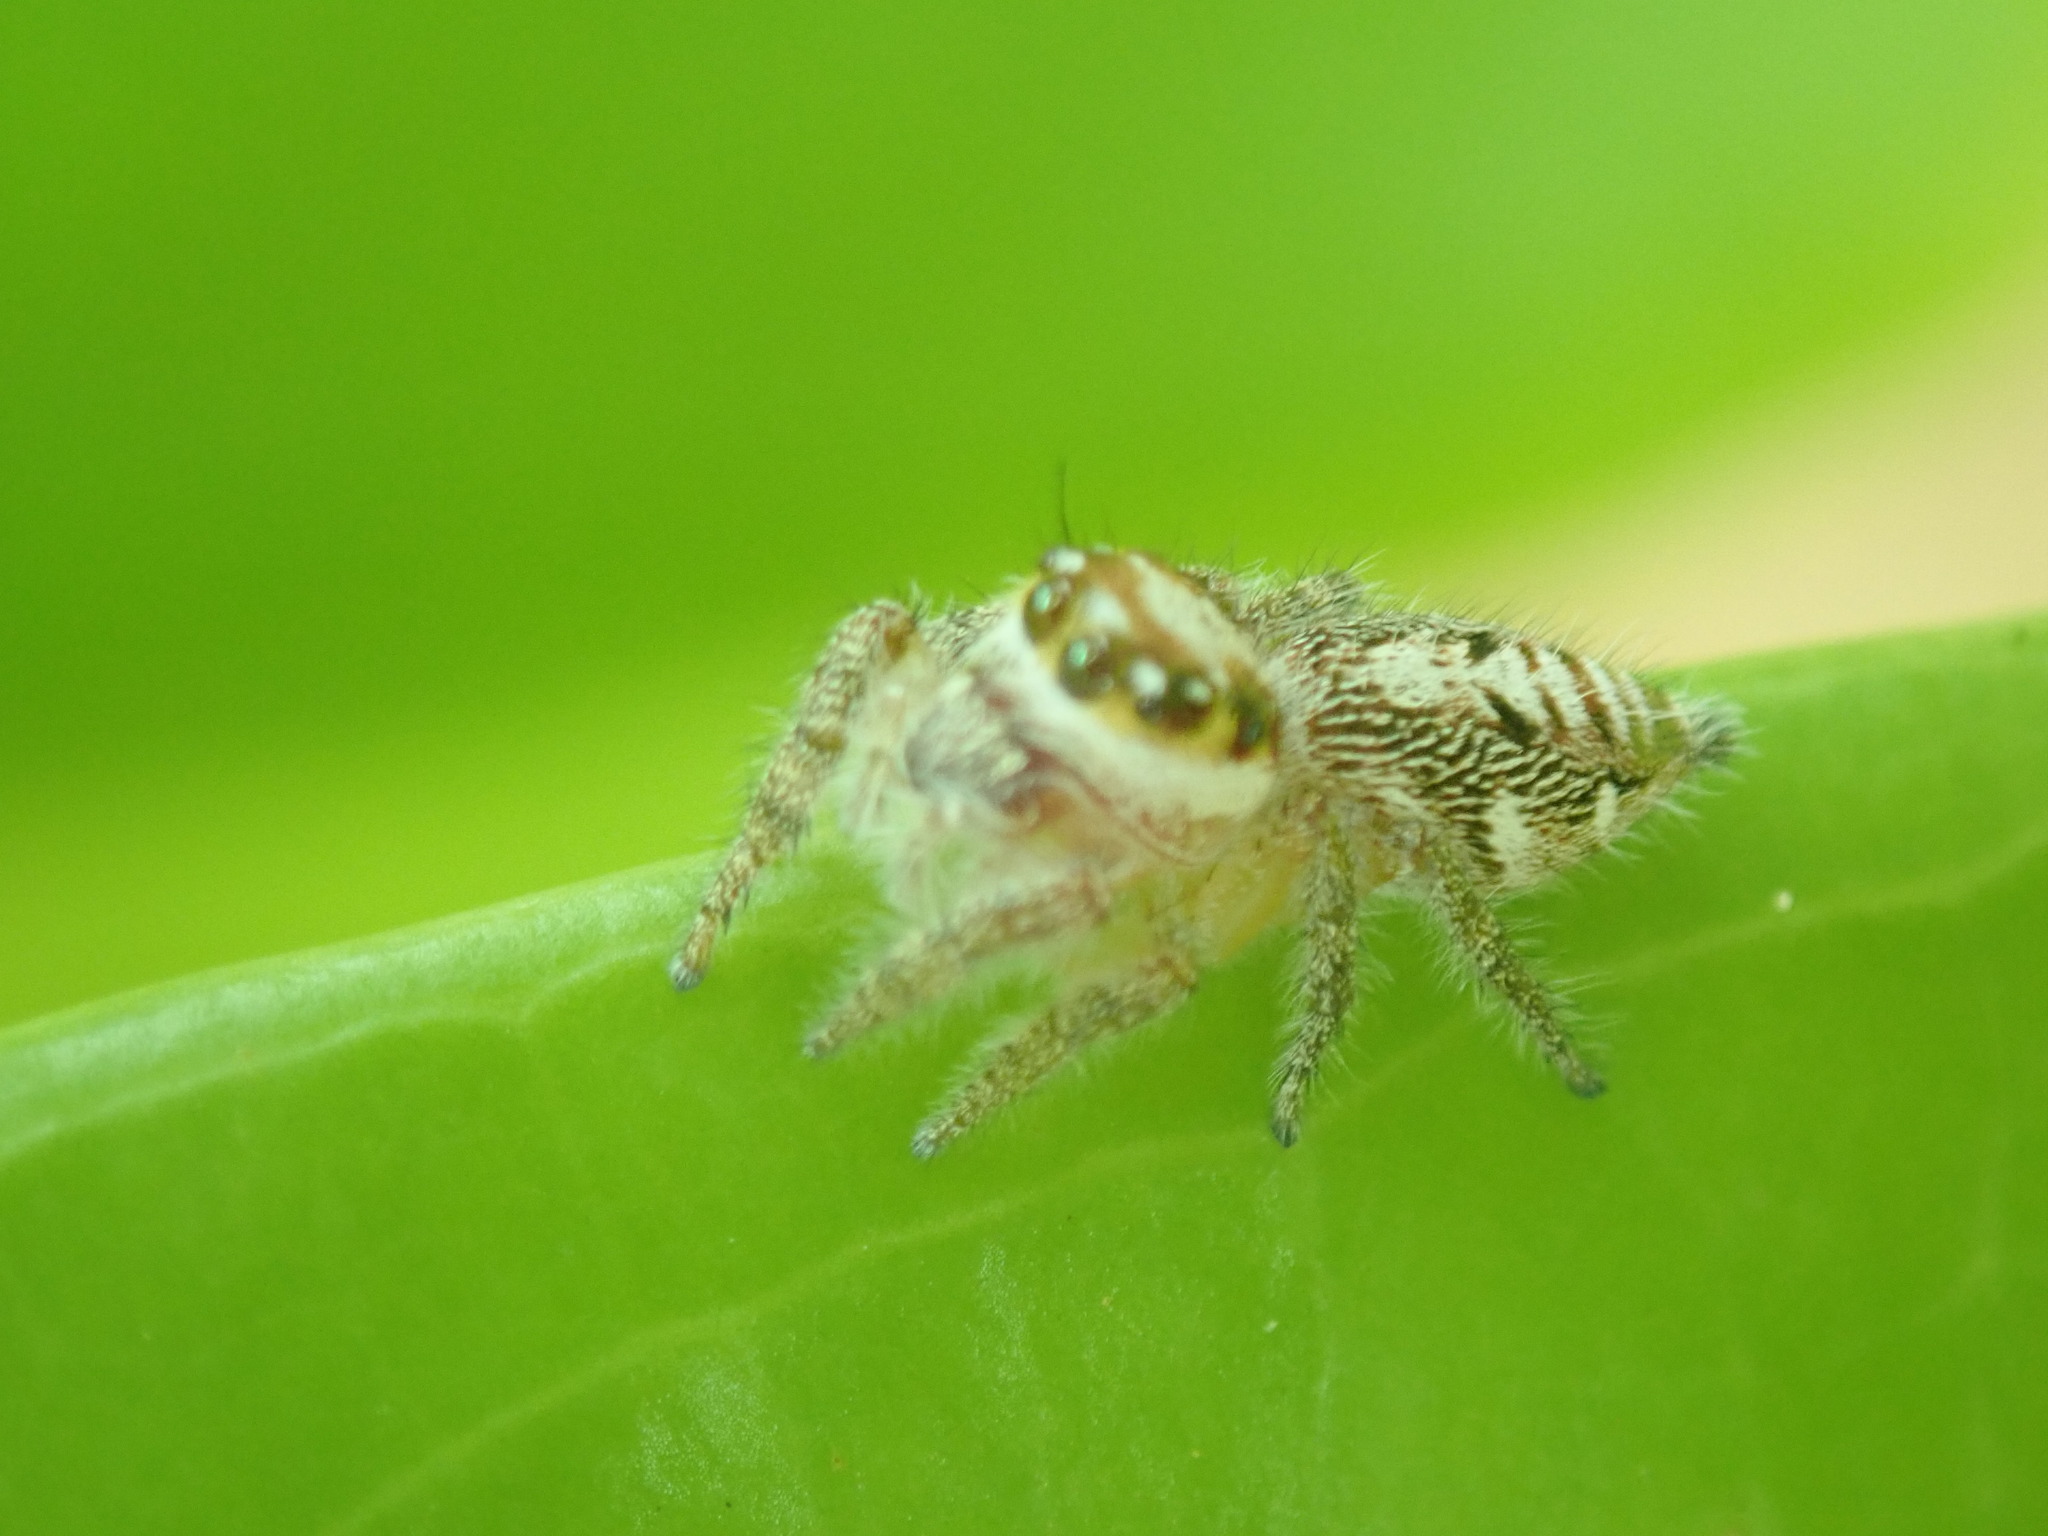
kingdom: Animalia
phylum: Arthropoda
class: Arachnida
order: Araneae
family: Salticidae
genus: Hyllus
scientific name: Hyllus semicupreus
